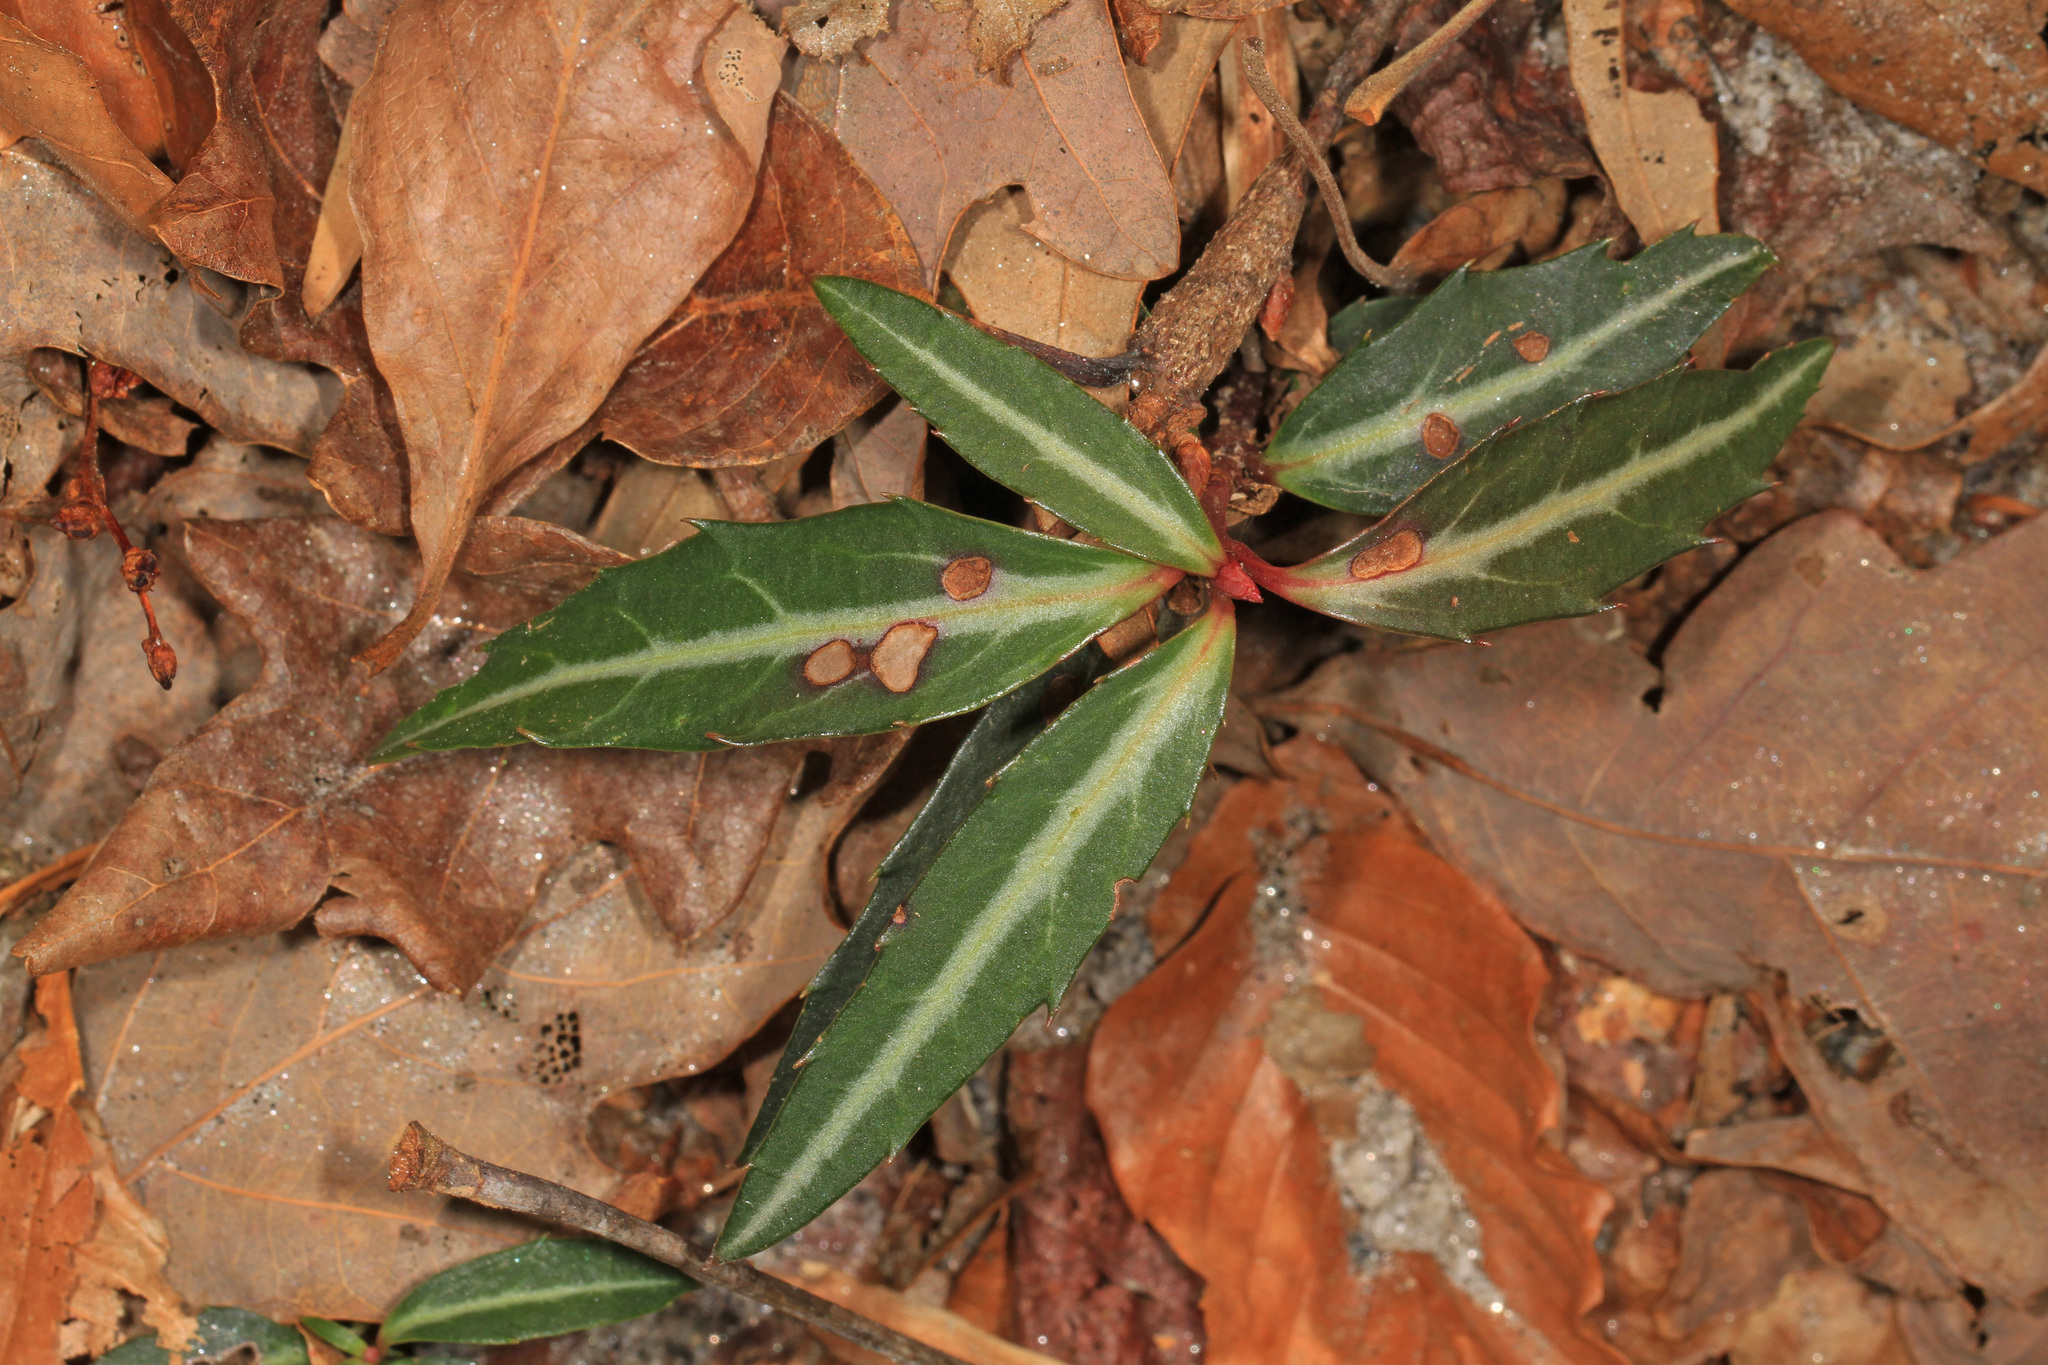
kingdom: Plantae
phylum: Tracheophyta
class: Magnoliopsida
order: Ericales
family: Ericaceae
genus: Chimaphila
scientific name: Chimaphila maculata
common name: Spotted pipsissewa
